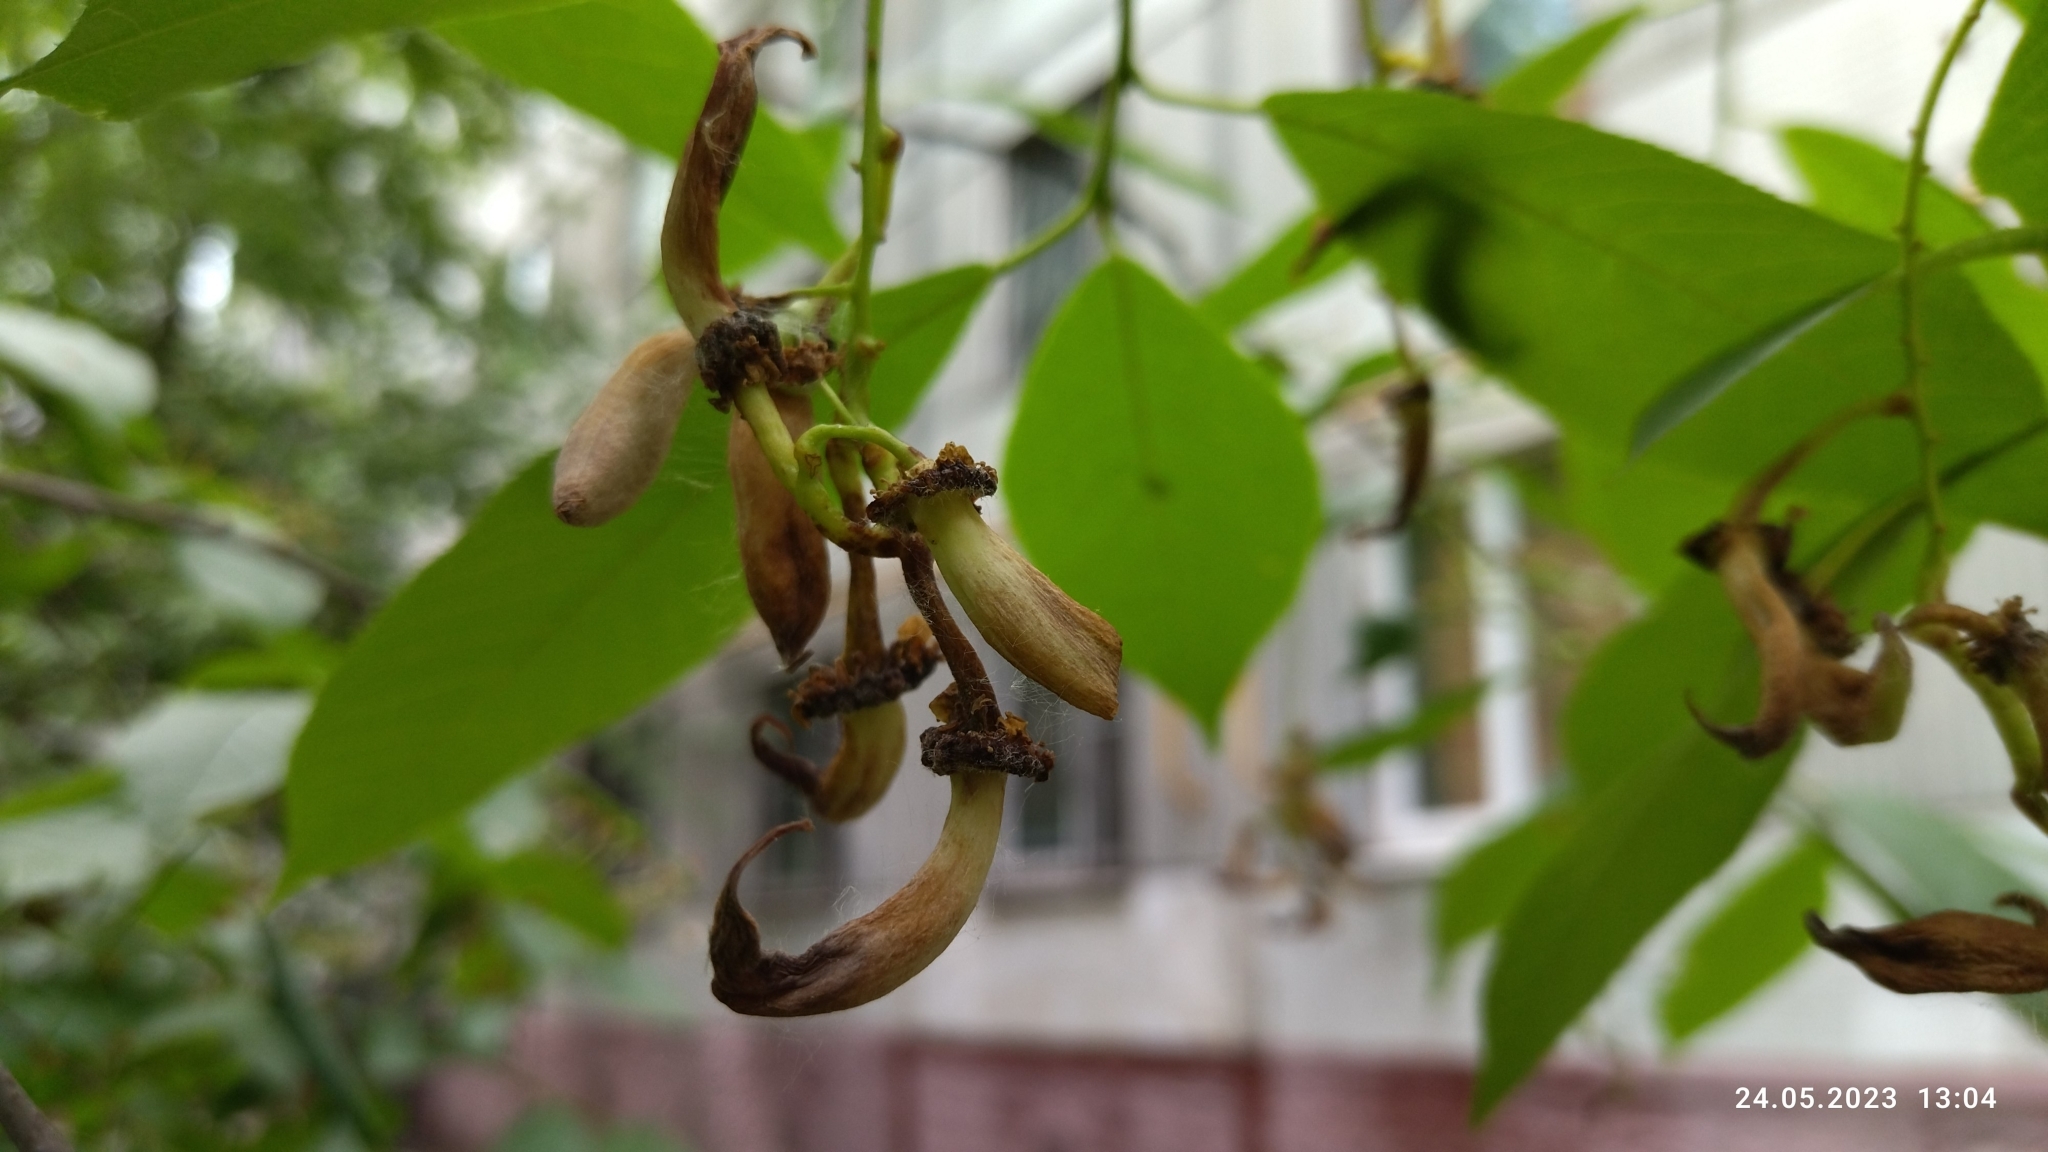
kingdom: Fungi
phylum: Ascomycota
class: Taphrinomycetes
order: Taphrinales
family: Taphrinaceae
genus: Taphrina
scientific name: Taphrina padi
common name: Bird cherry pocket
